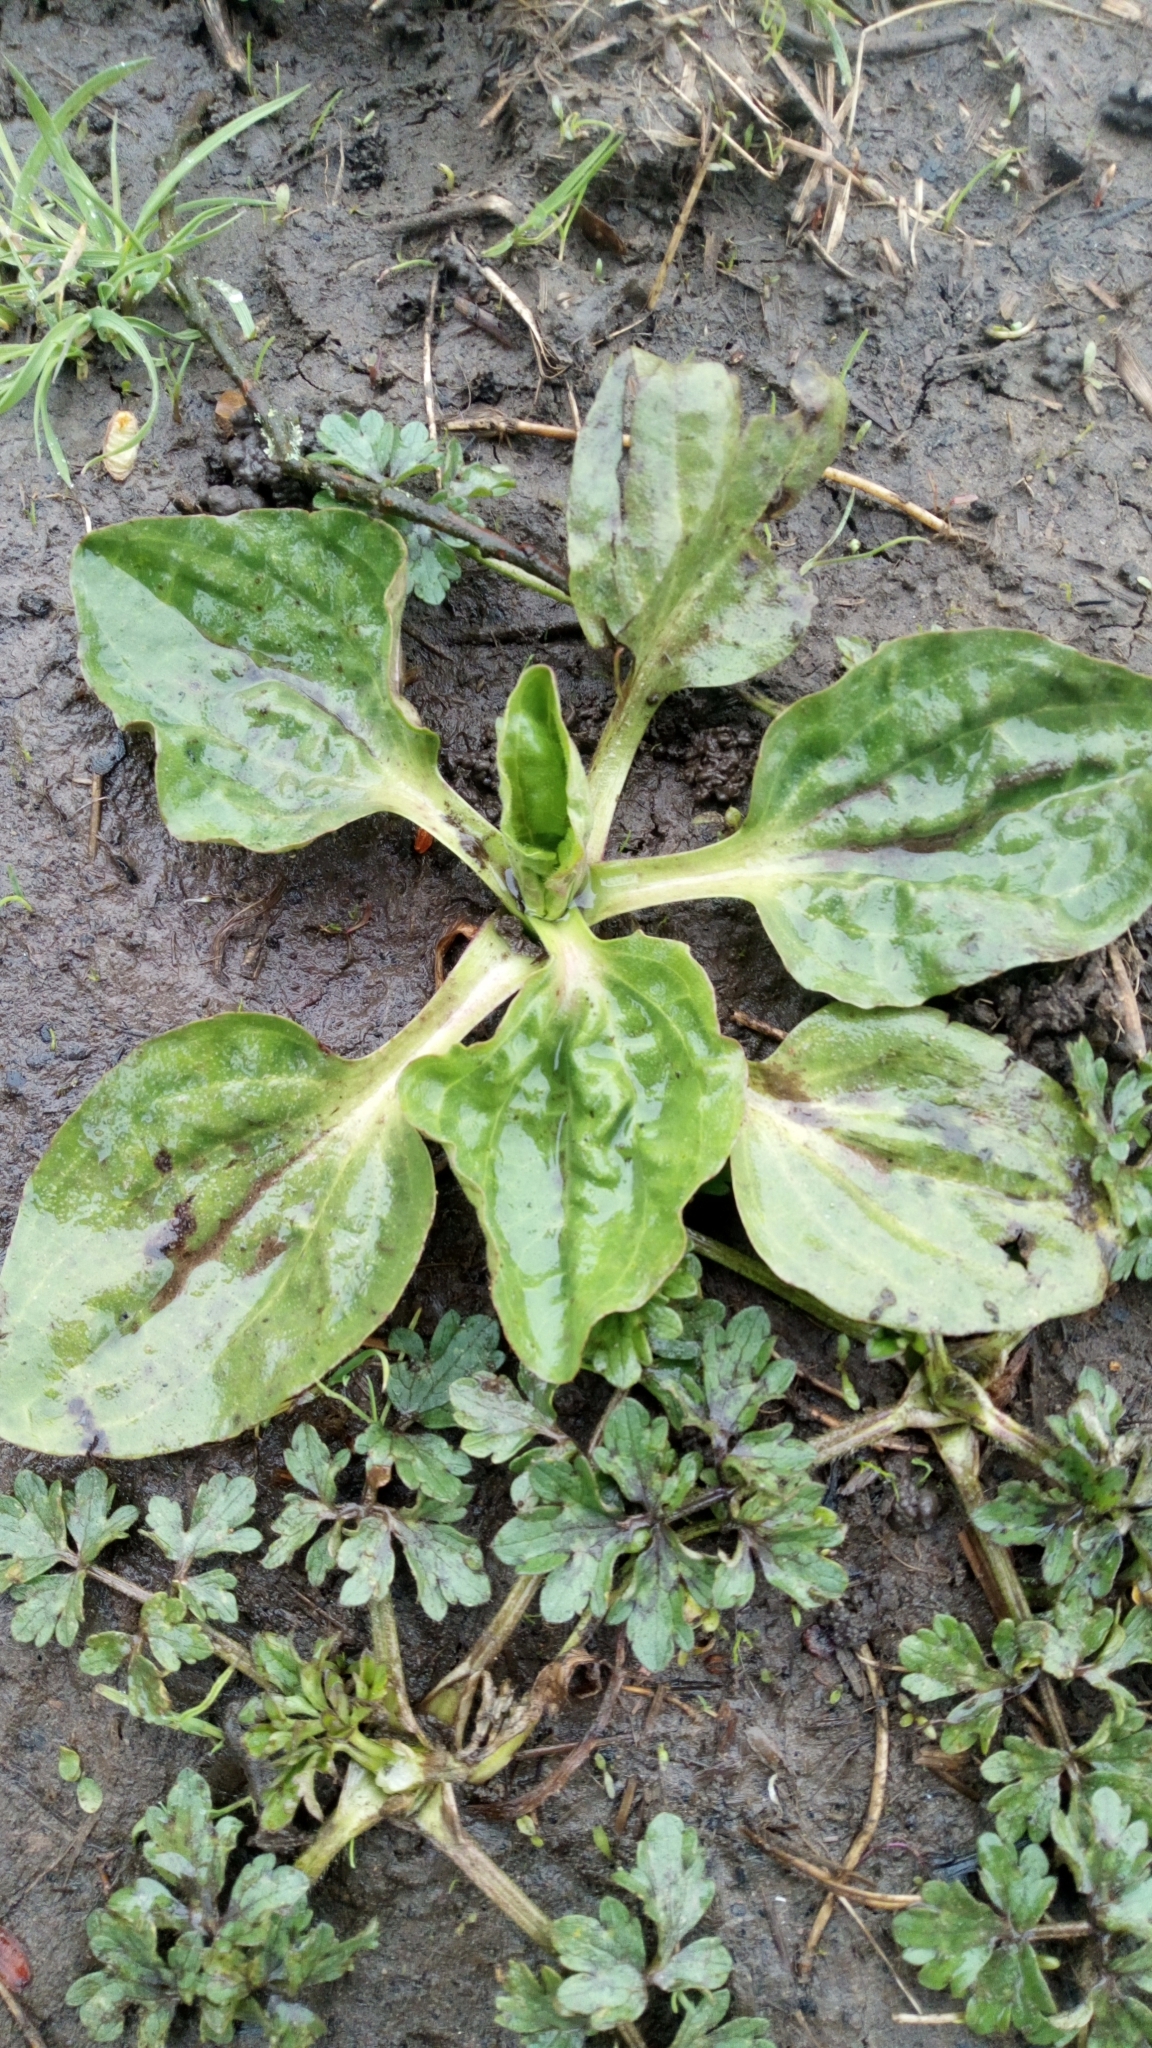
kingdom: Plantae
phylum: Tracheophyta
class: Magnoliopsida
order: Lamiales
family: Plantaginaceae
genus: Plantago
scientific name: Plantago major
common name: Common plantain
